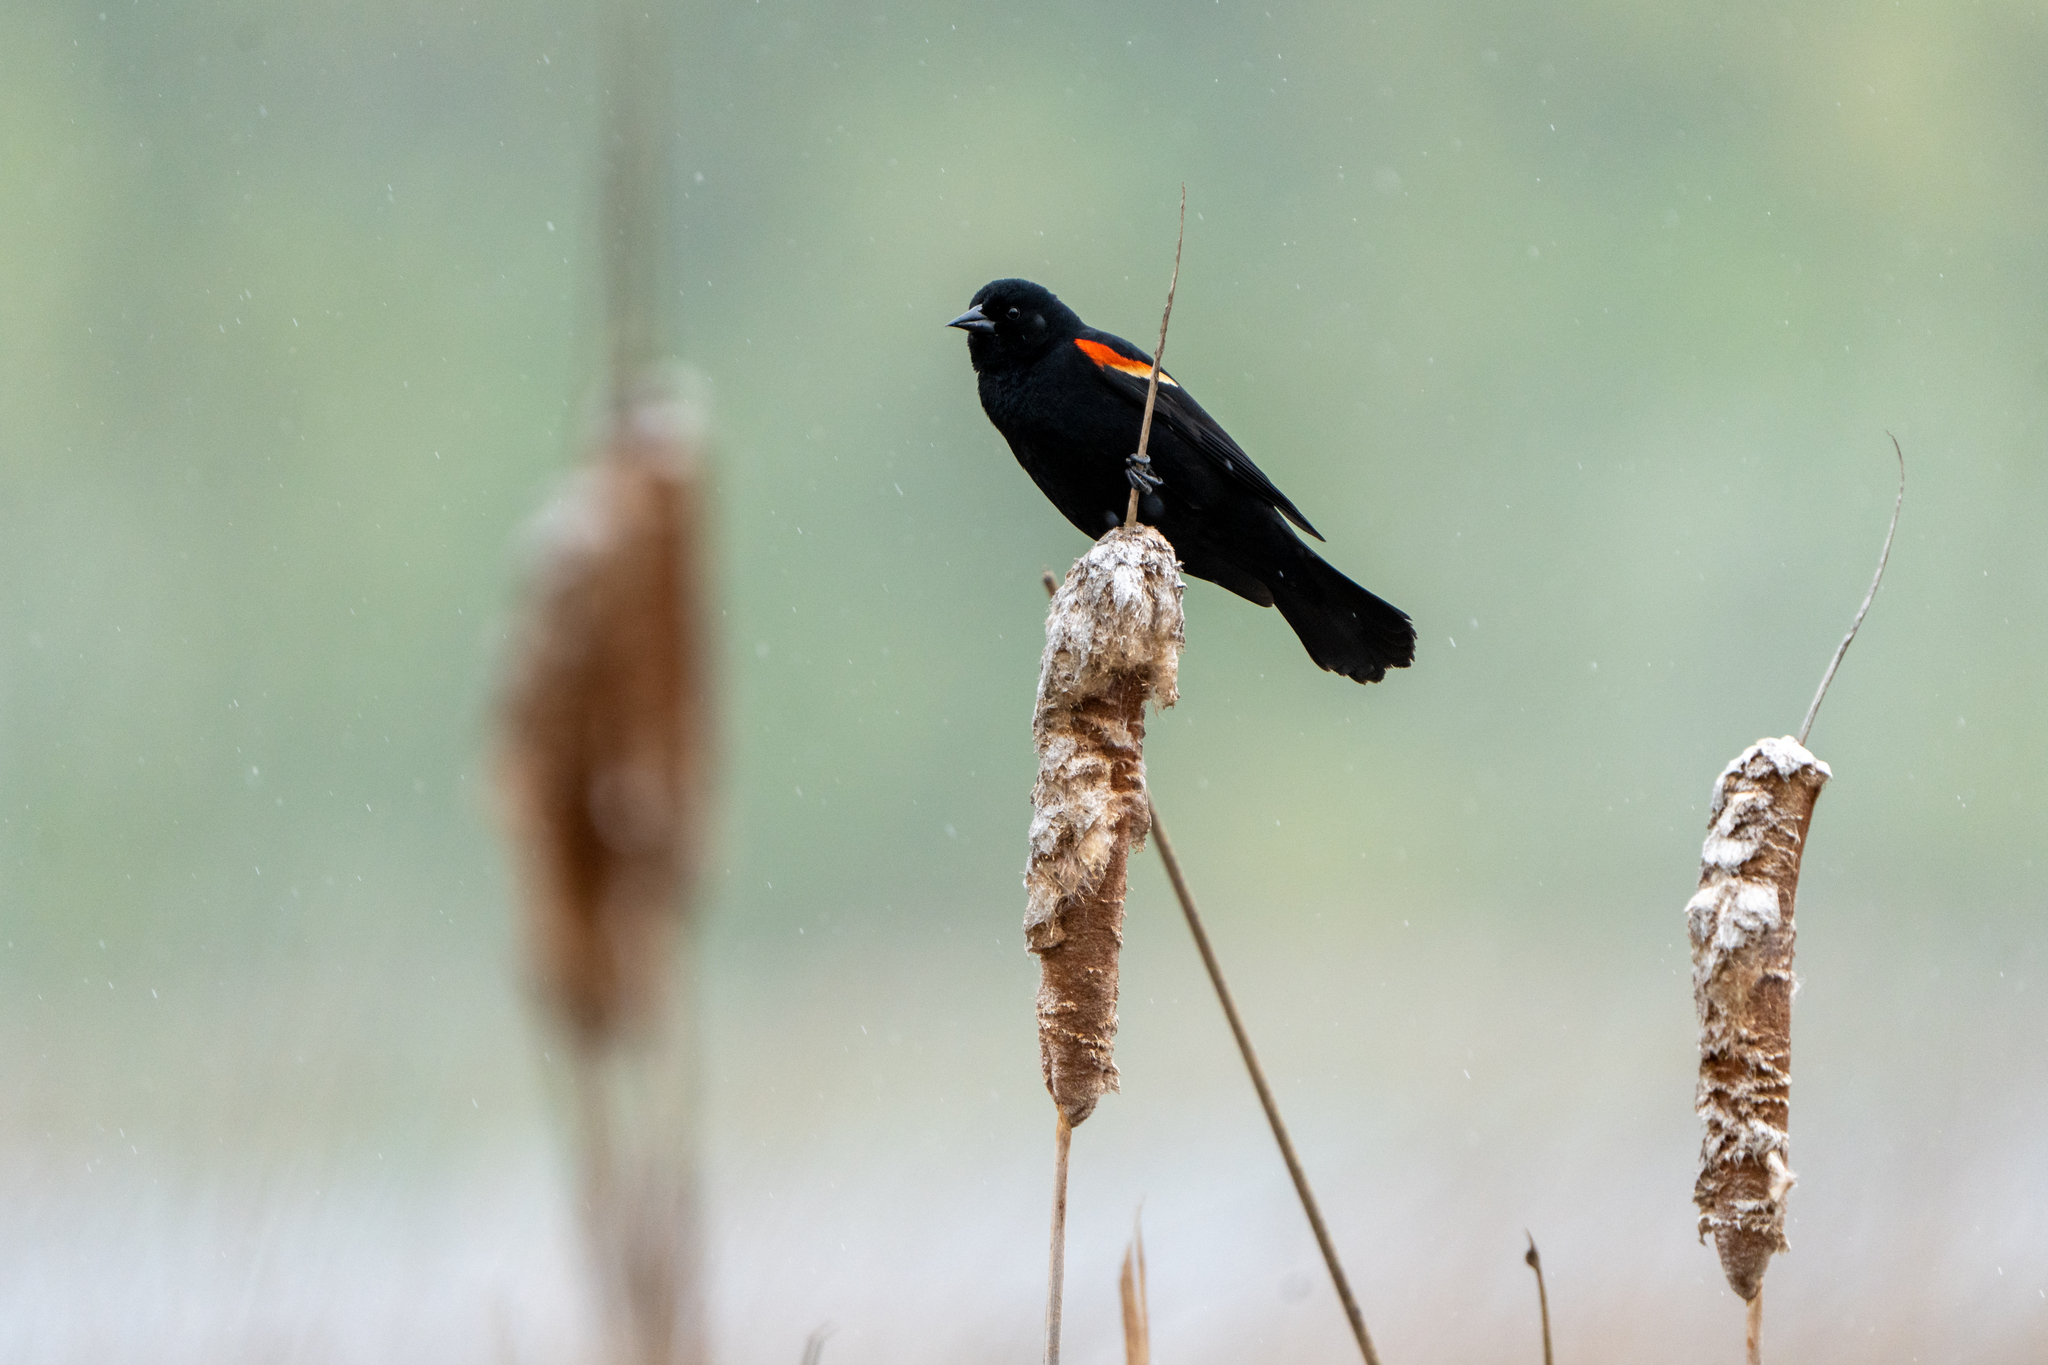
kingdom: Animalia
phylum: Chordata
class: Aves
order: Passeriformes
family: Icteridae
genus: Agelaius
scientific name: Agelaius phoeniceus
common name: Red-winged blackbird
